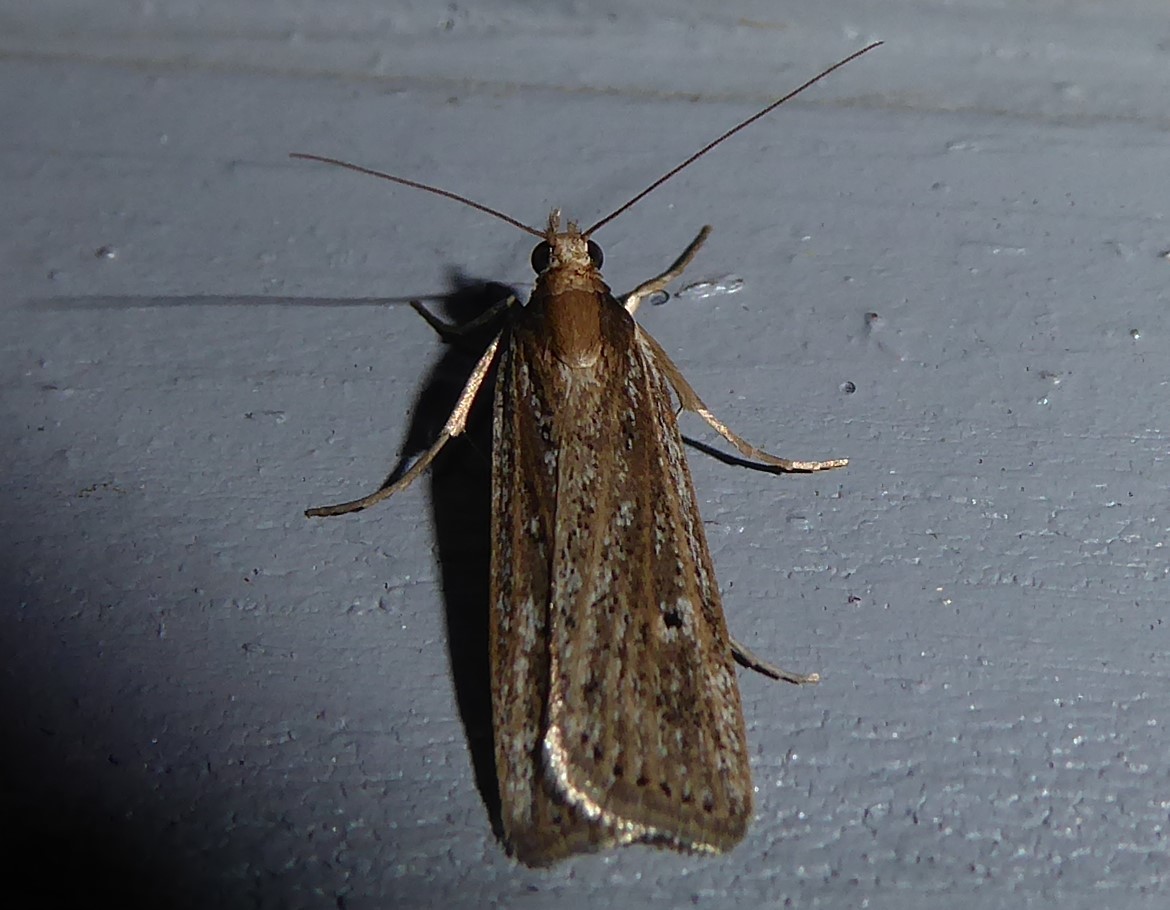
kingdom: Animalia
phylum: Arthropoda
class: Insecta
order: Lepidoptera
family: Crambidae
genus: Eudonia
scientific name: Eudonia sabulosella
